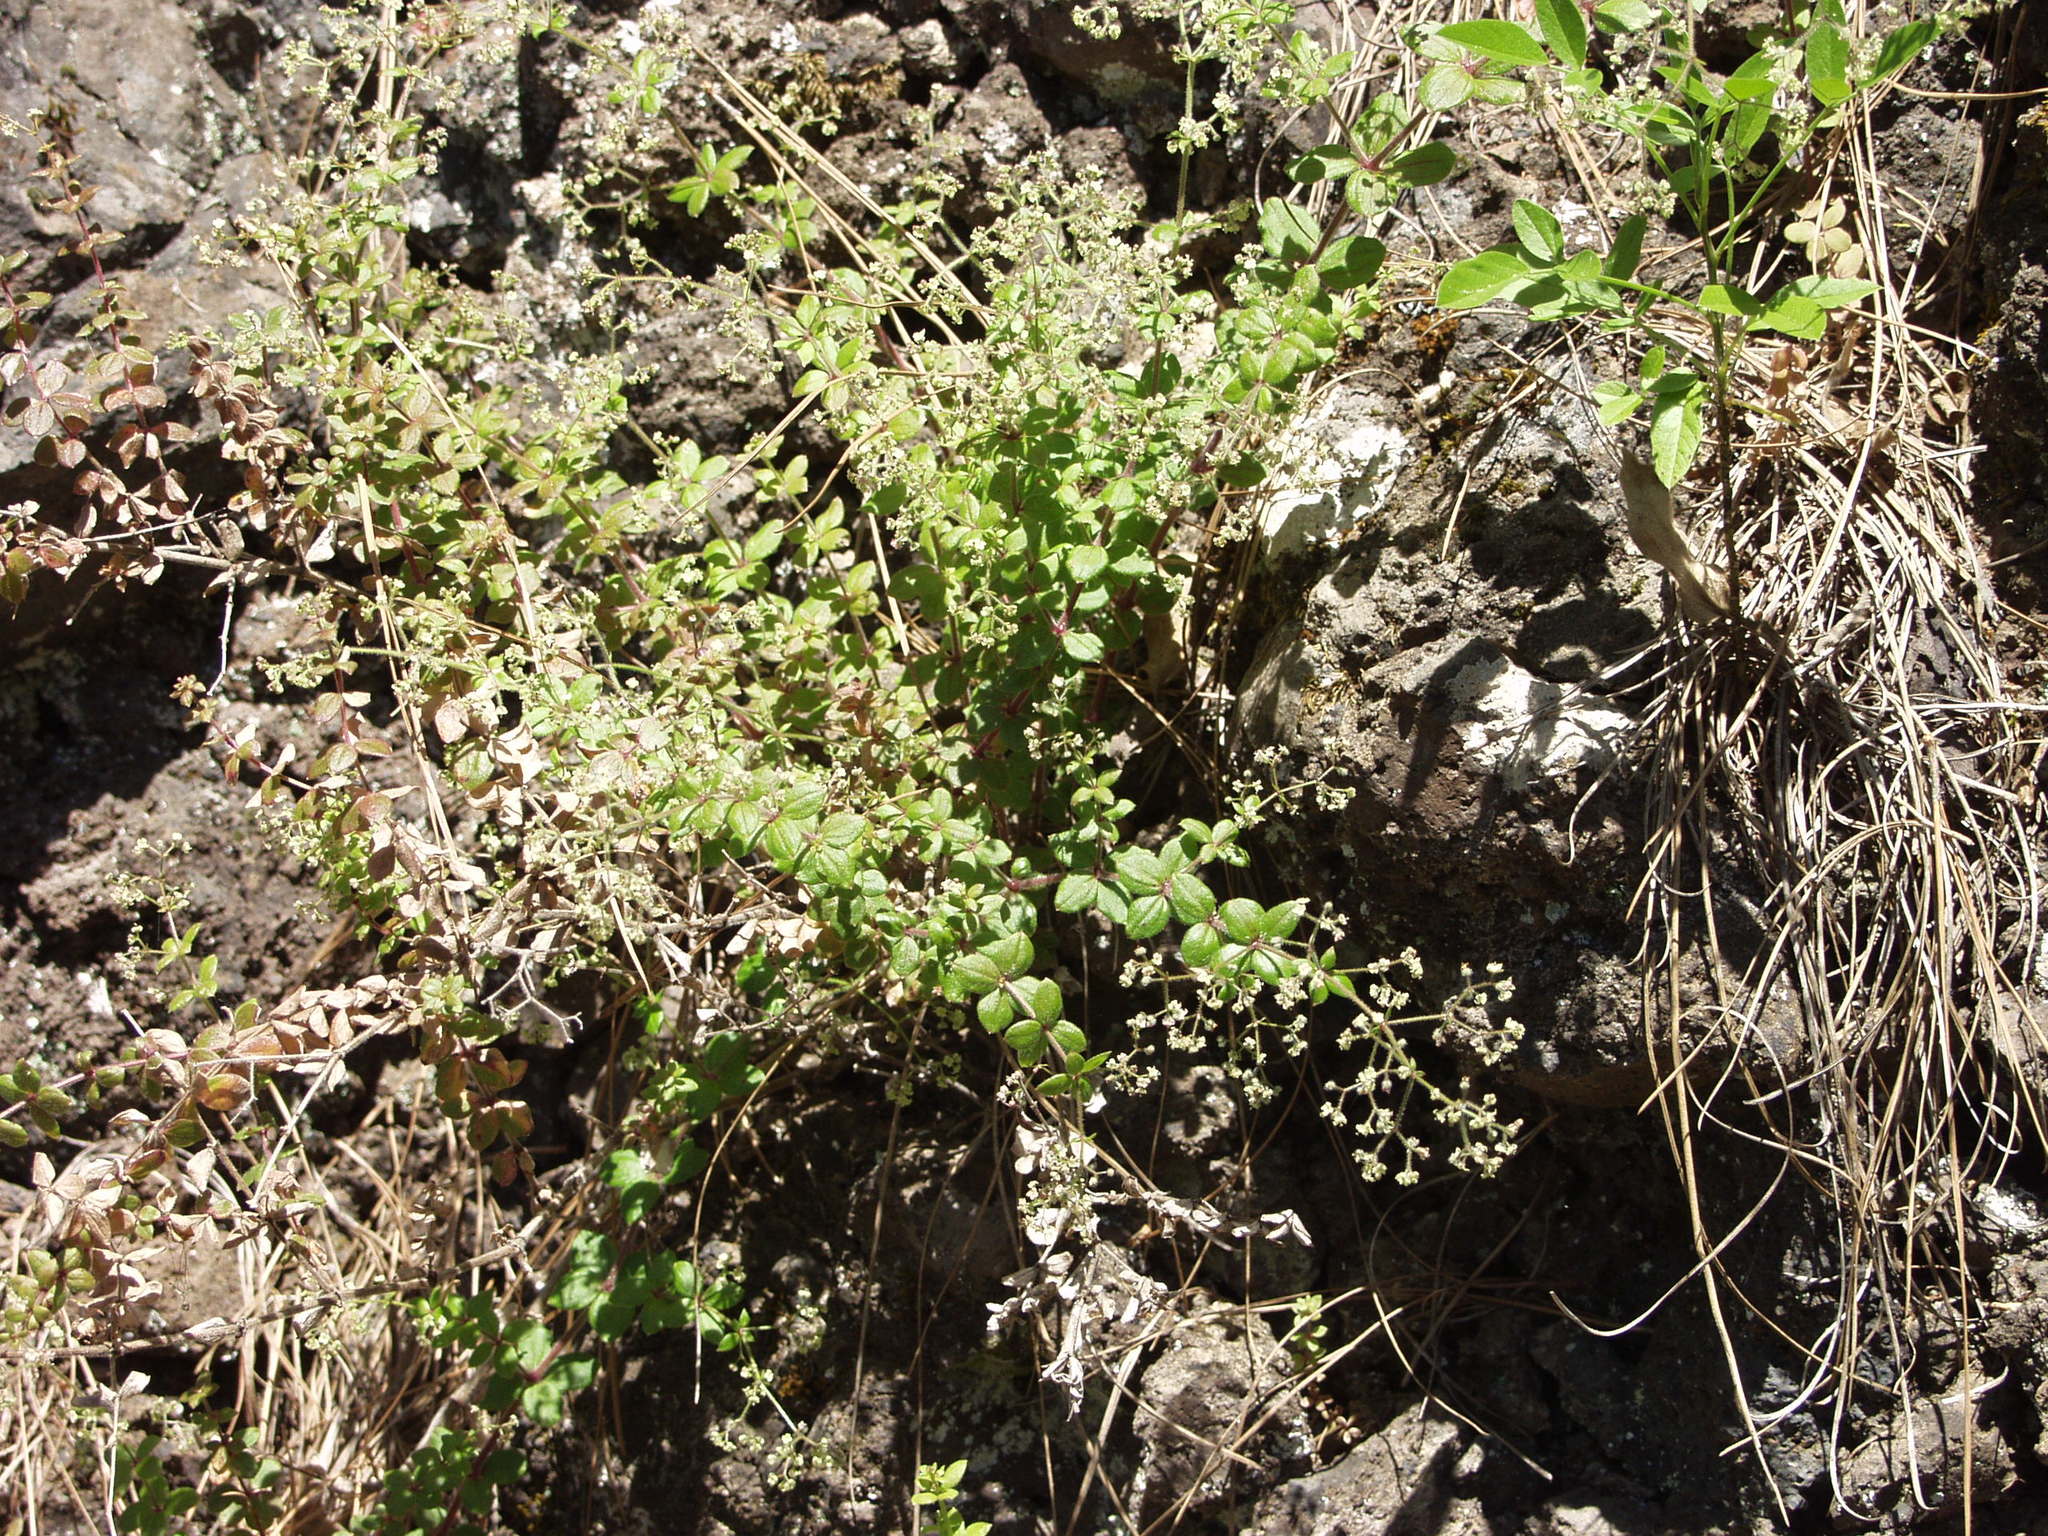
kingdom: Plantae
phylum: Tracheophyta
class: Magnoliopsida
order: Gentianales
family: Rubiaceae
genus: Galium
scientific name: Galium scabrum
